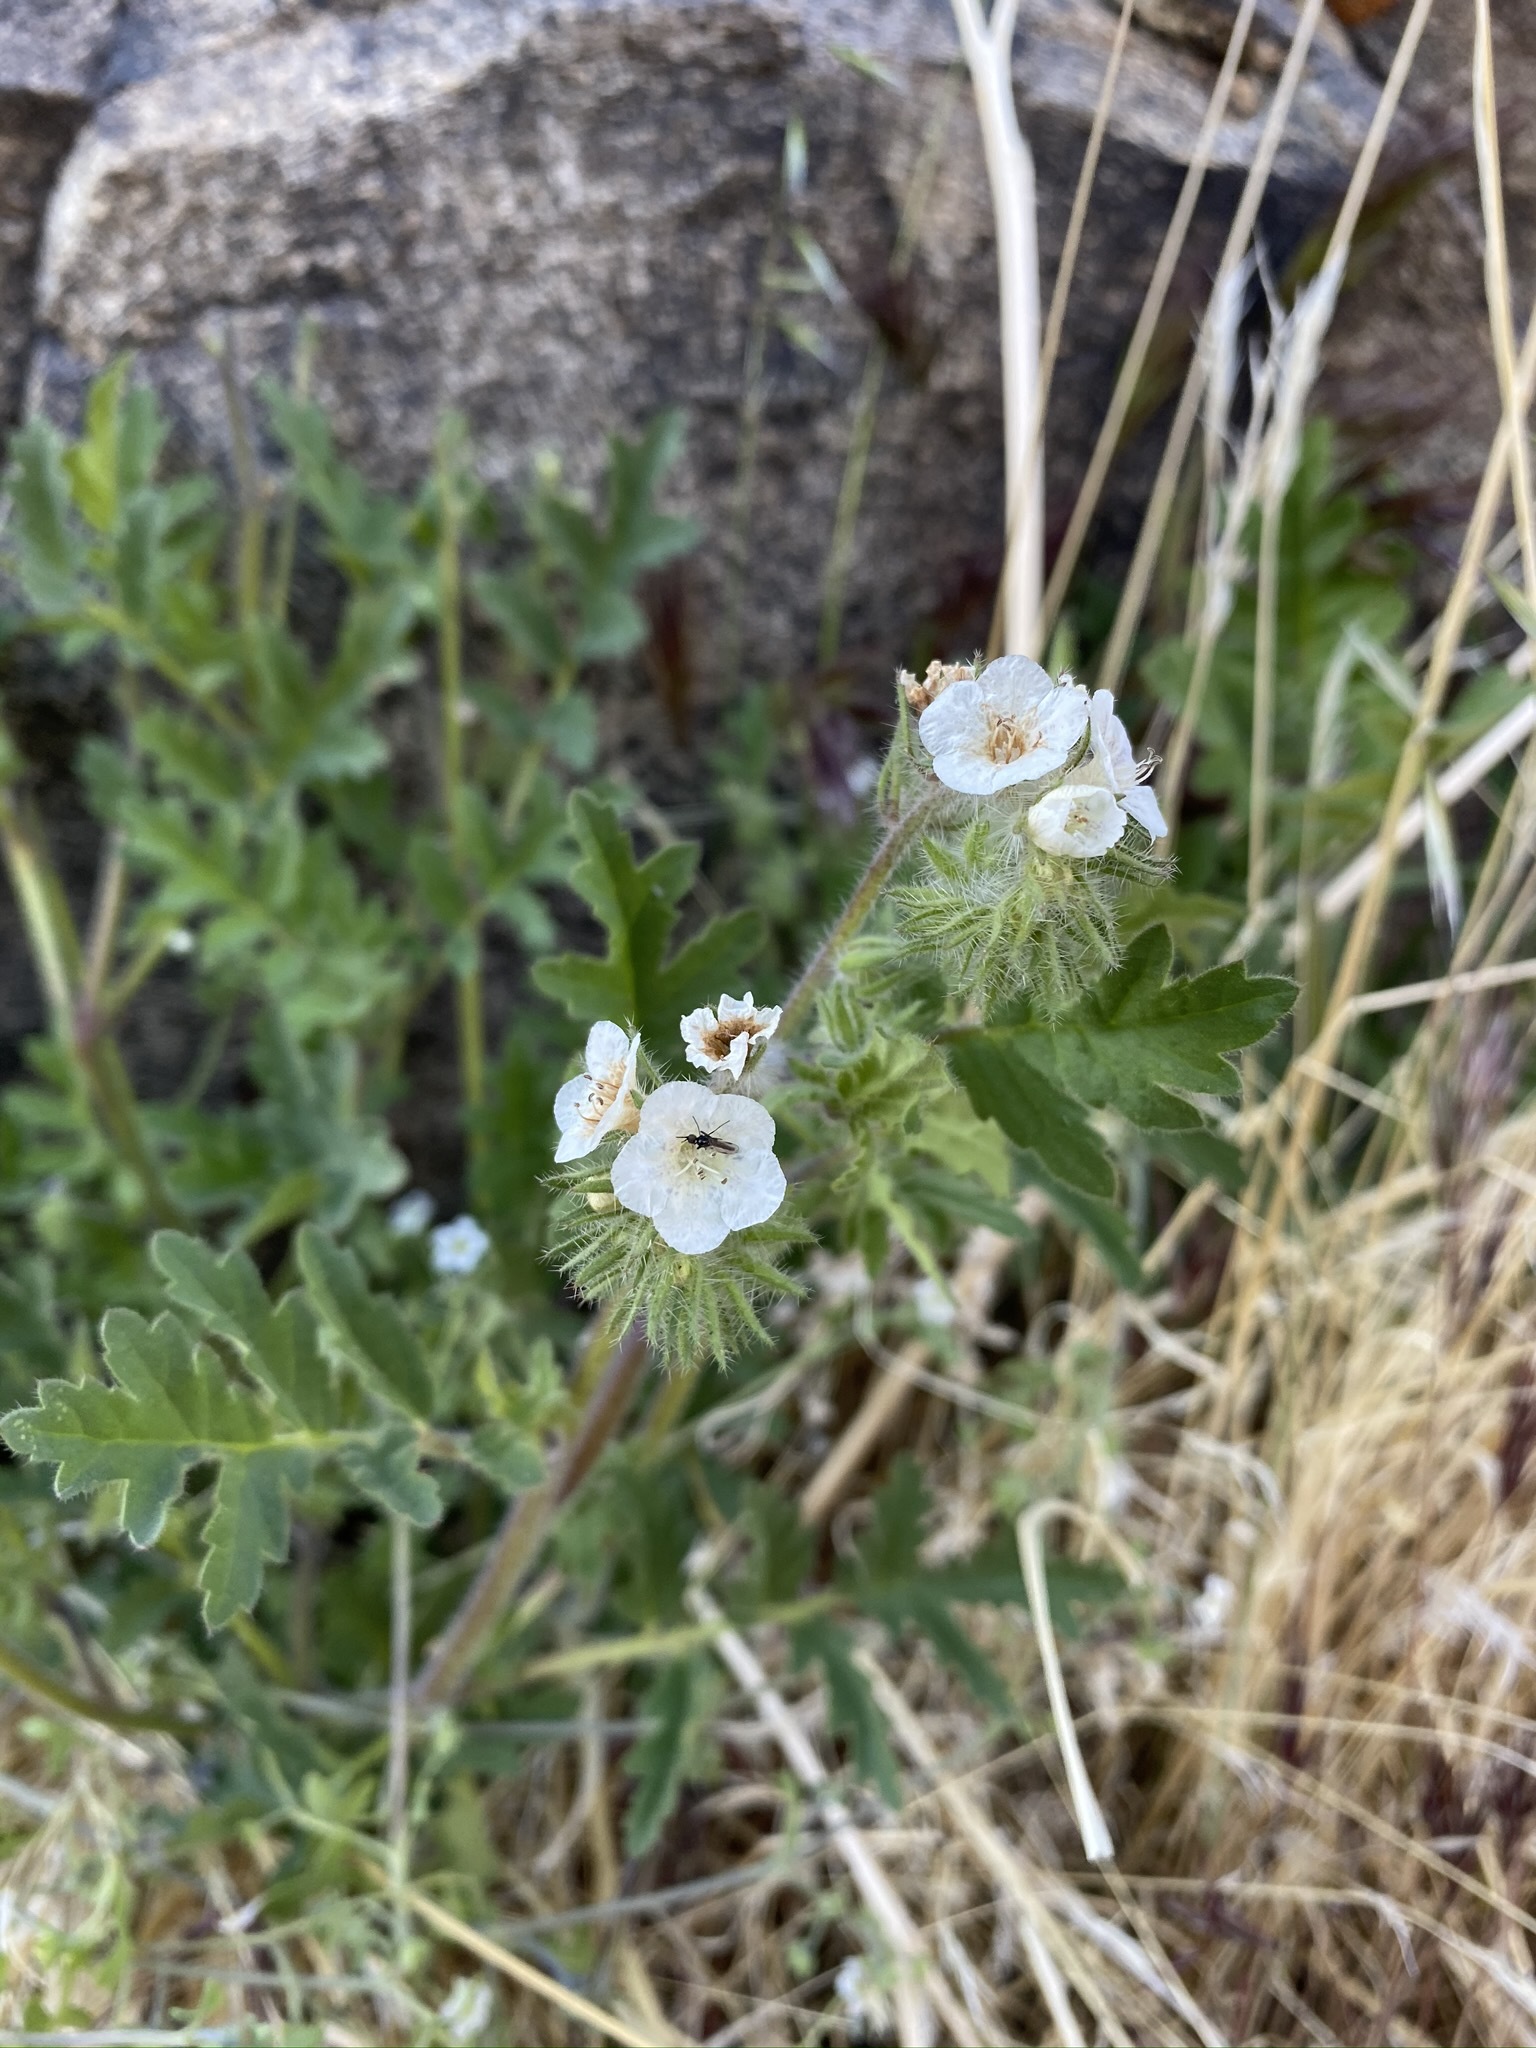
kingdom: Plantae
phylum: Tracheophyta
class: Magnoliopsida
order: Boraginales
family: Hydrophyllaceae
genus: Phacelia
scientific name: Phacelia cicutaria
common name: Caterpillar phacelia
